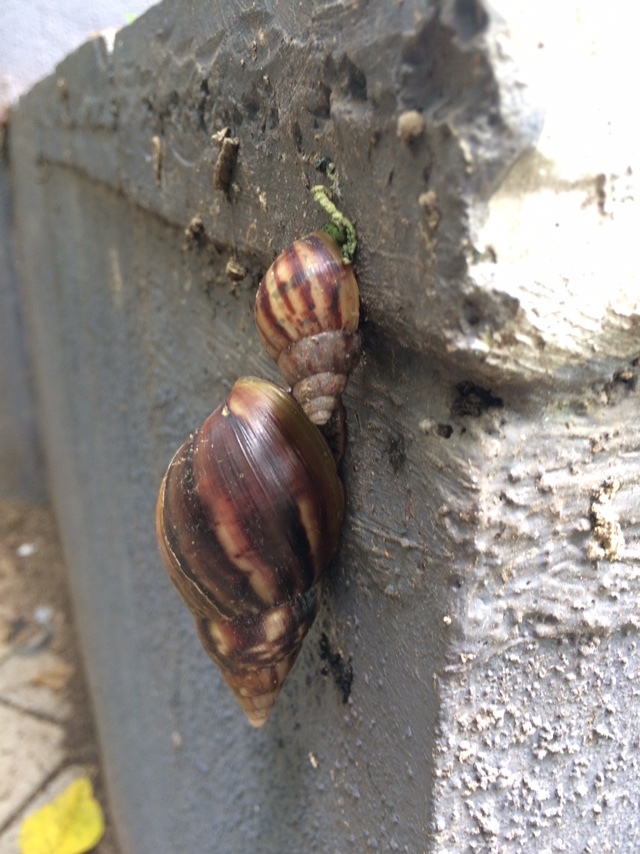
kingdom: Animalia
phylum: Mollusca
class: Gastropoda
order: Stylommatophora
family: Achatinidae
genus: Lissachatina
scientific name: Lissachatina fulica
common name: Giant african snail
